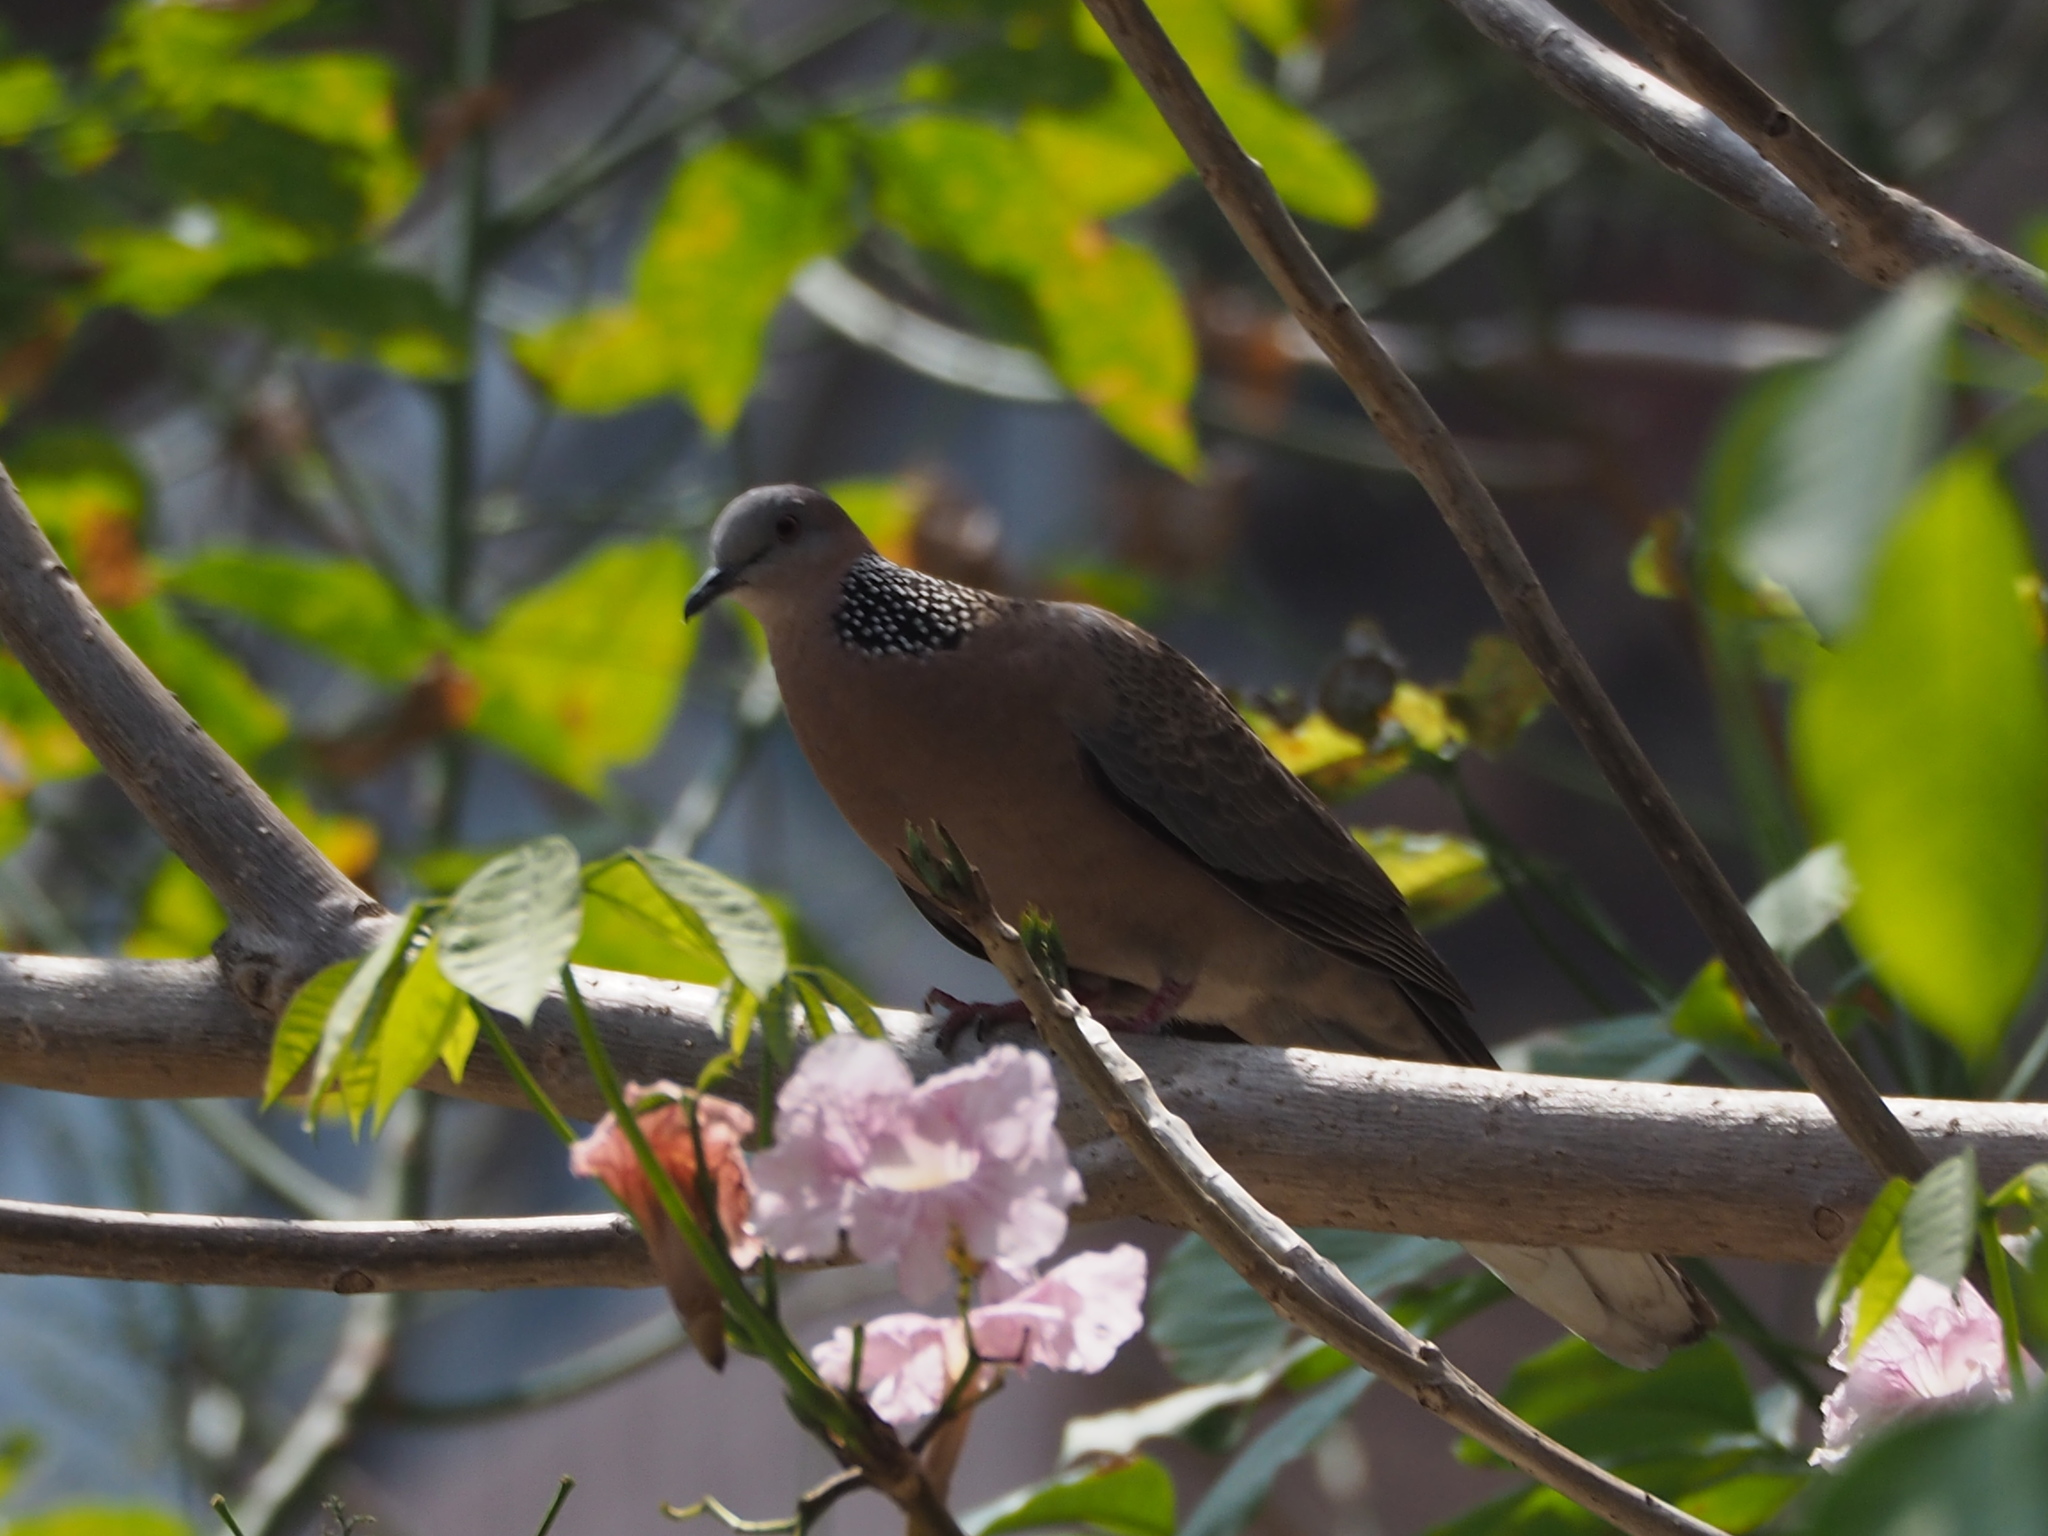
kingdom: Animalia
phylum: Chordata
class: Aves
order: Columbiformes
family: Columbidae
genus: Spilopelia
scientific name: Spilopelia chinensis
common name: Spotted dove
